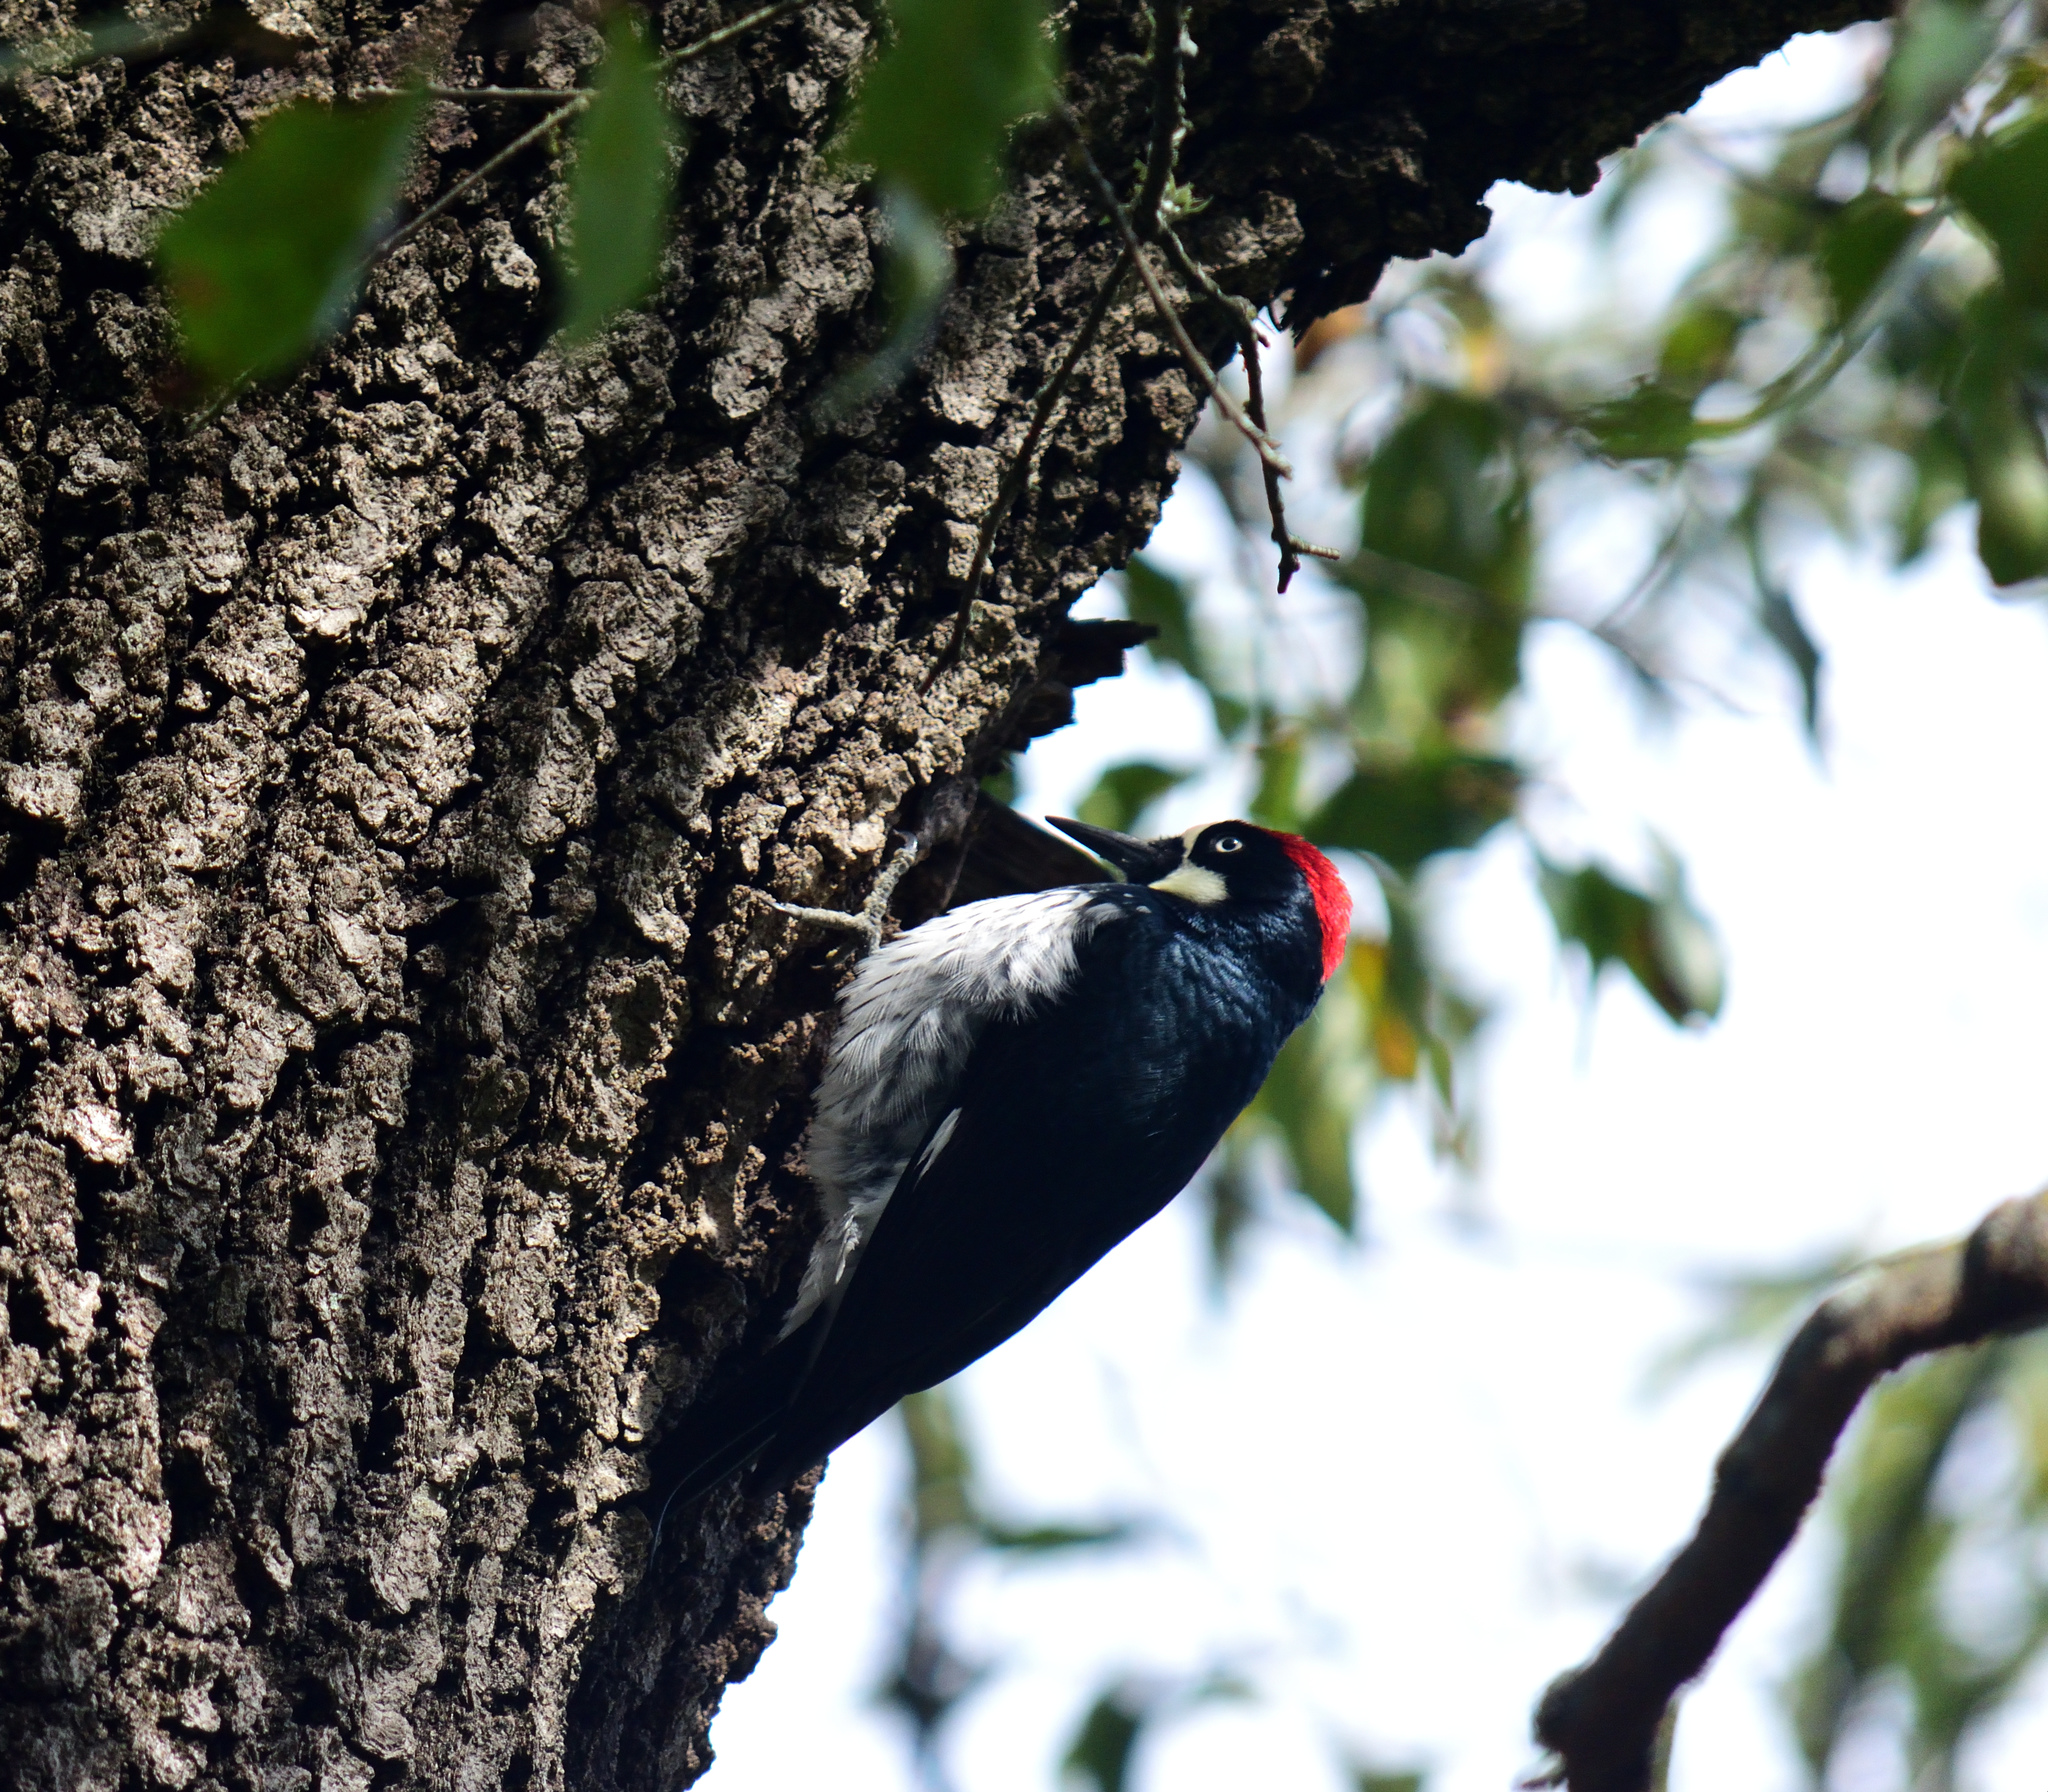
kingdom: Animalia
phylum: Chordata
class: Aves
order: Piciformes
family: Picidae
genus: Melanerpes
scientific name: Melanerpes formicivorus
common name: Acorn woodpecker
